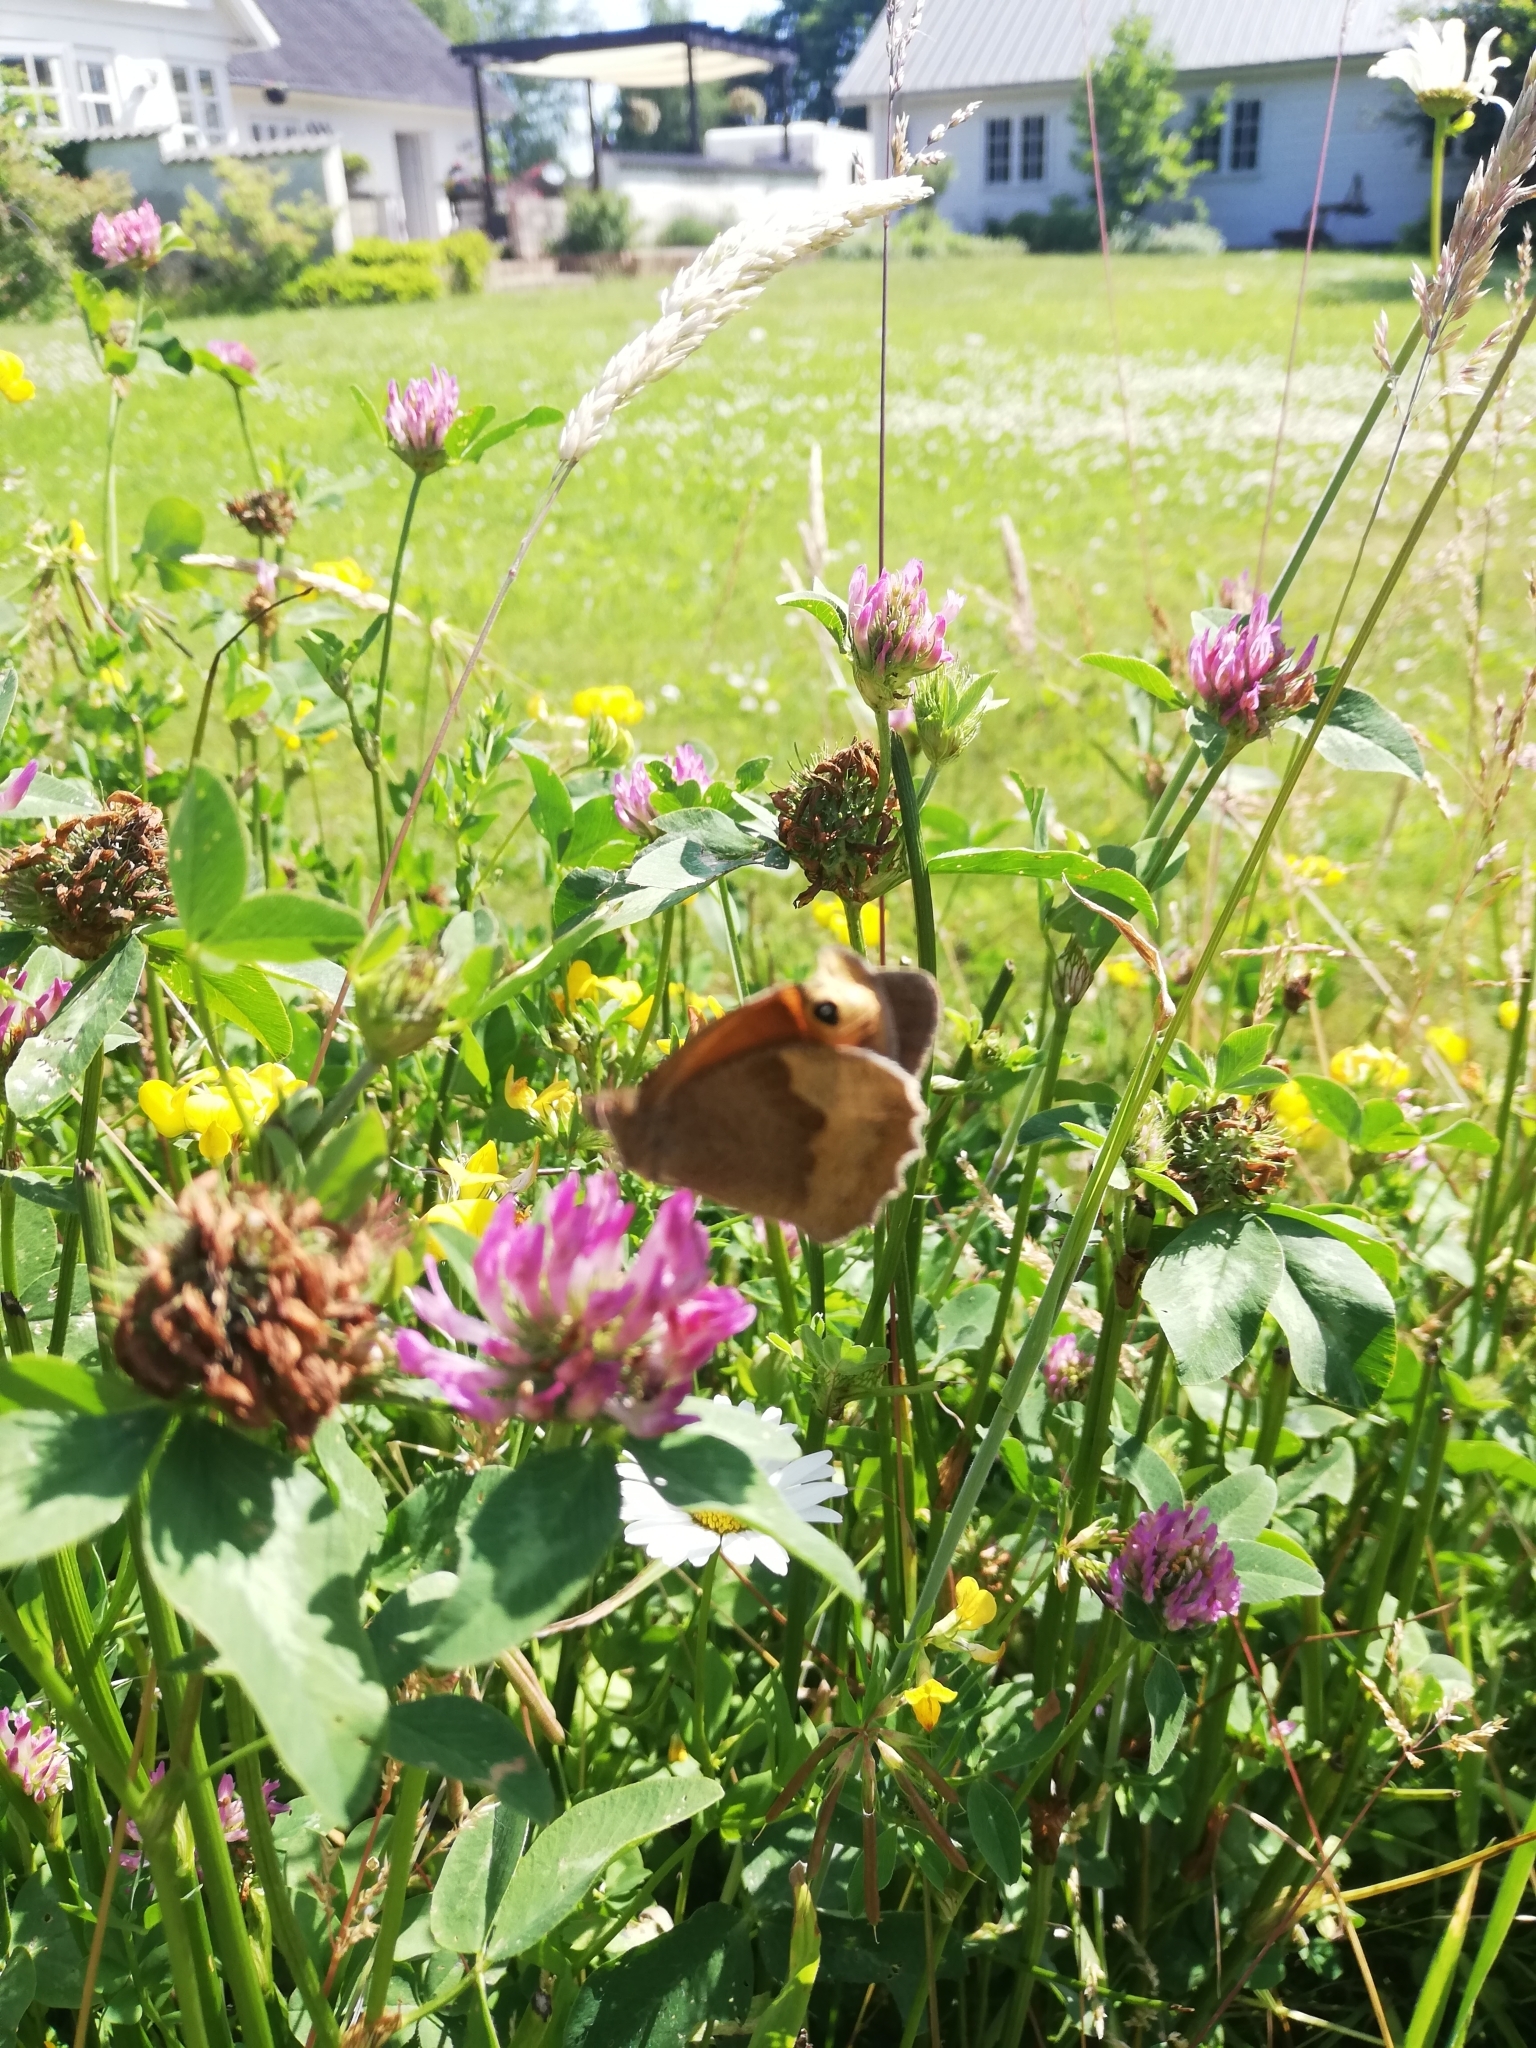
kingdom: Animalia
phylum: Arthropoda
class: Insecta
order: Lepidoptera
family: Nymphalidae
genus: Maniola
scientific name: Maniola jurtina
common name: Meadow brown
